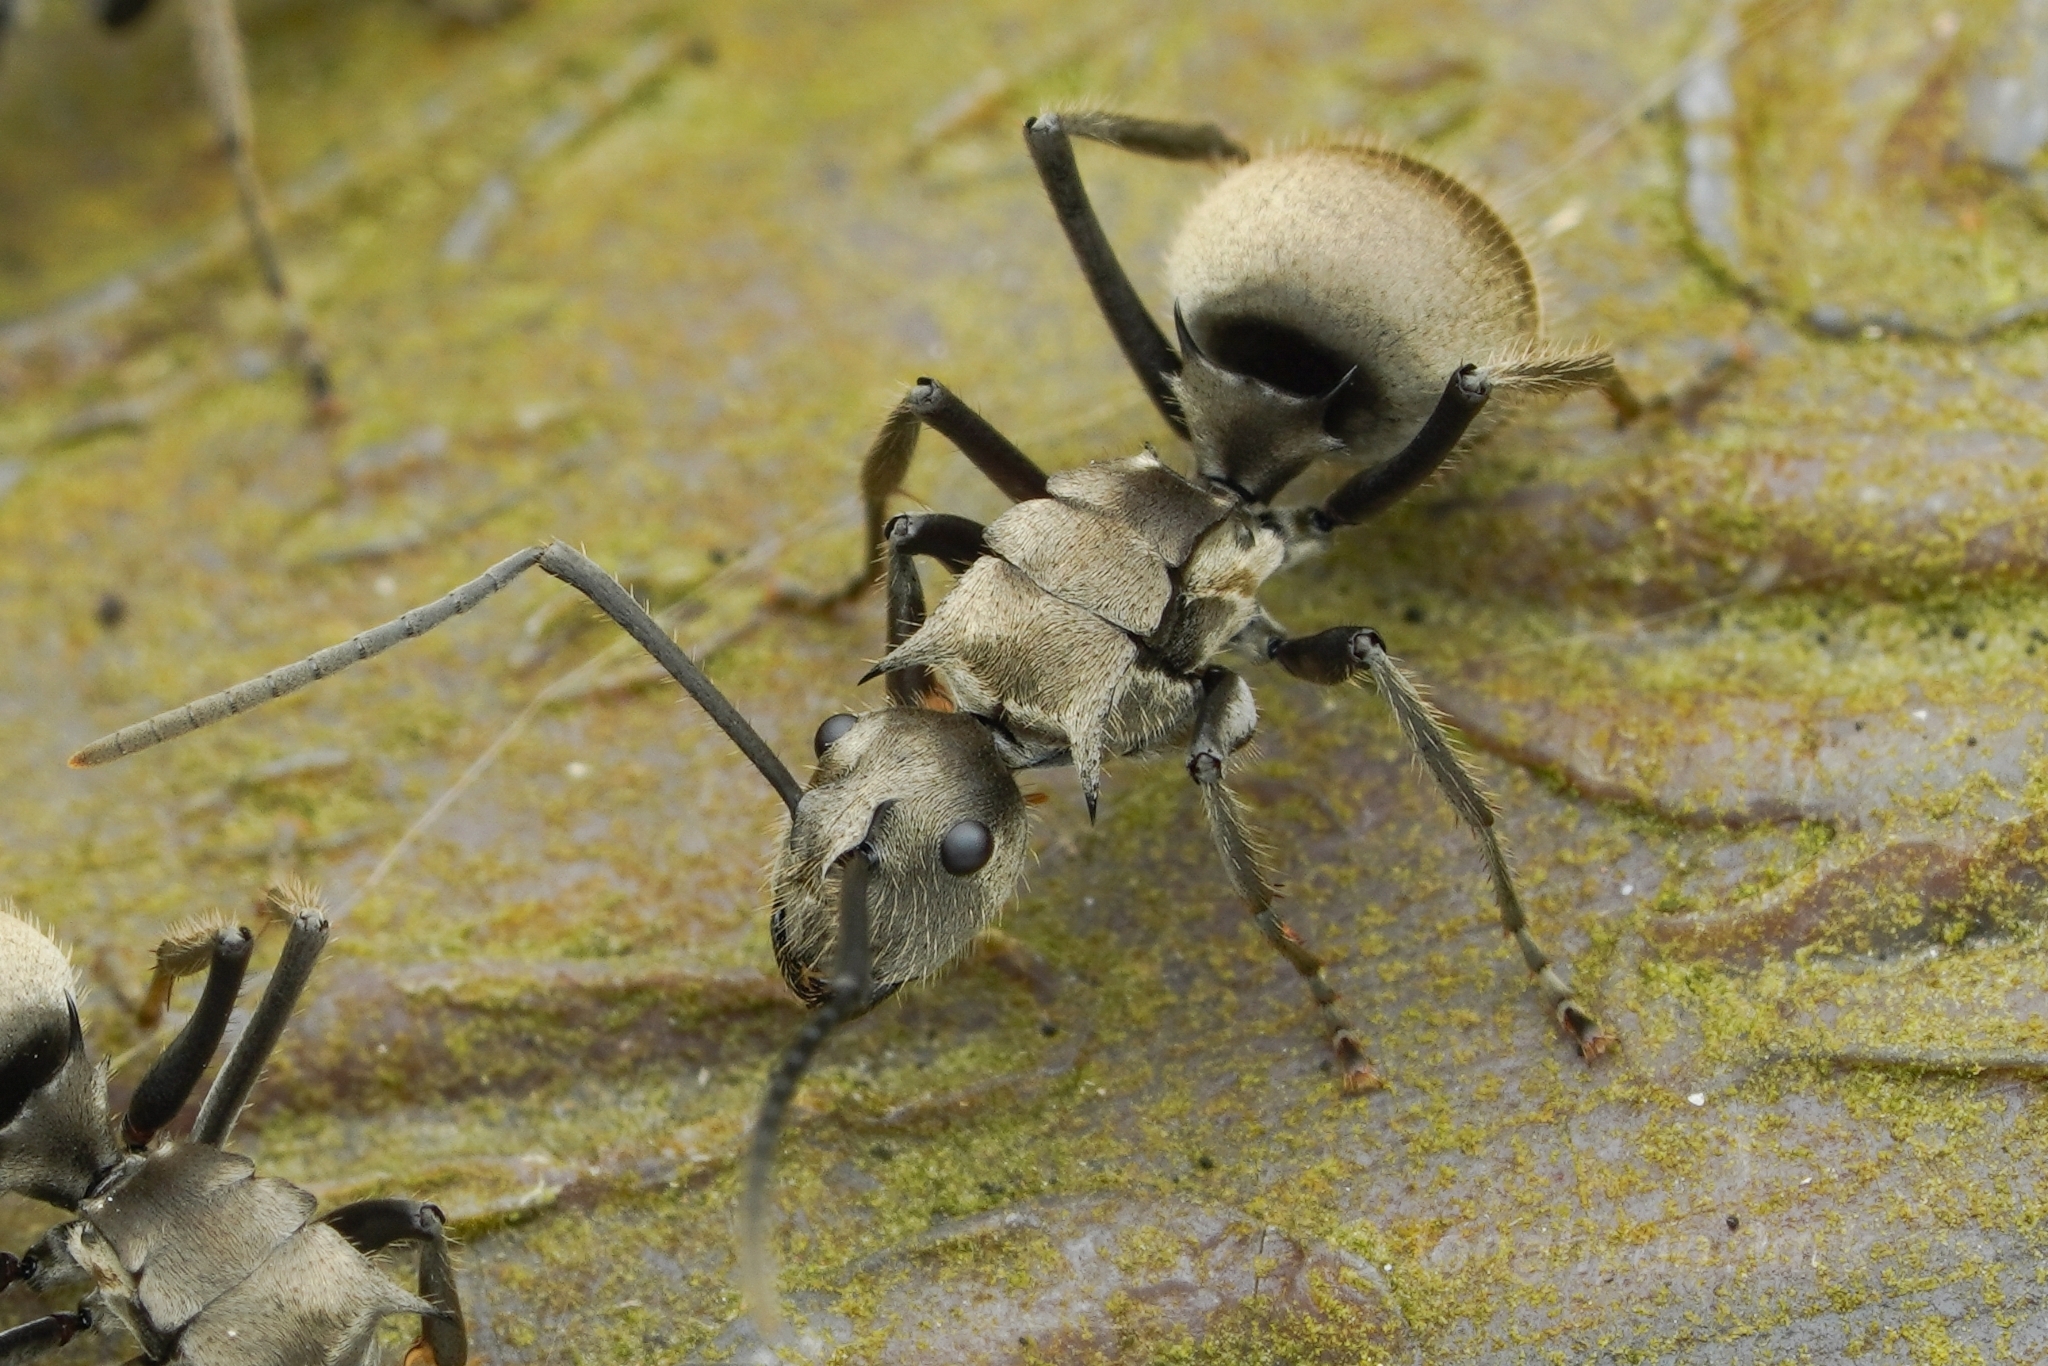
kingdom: Animalia
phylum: Arthropoda
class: Insecta
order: Hymenoptera
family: Formicidae
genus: Polyrhachis
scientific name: Polyrhachis illaudata
